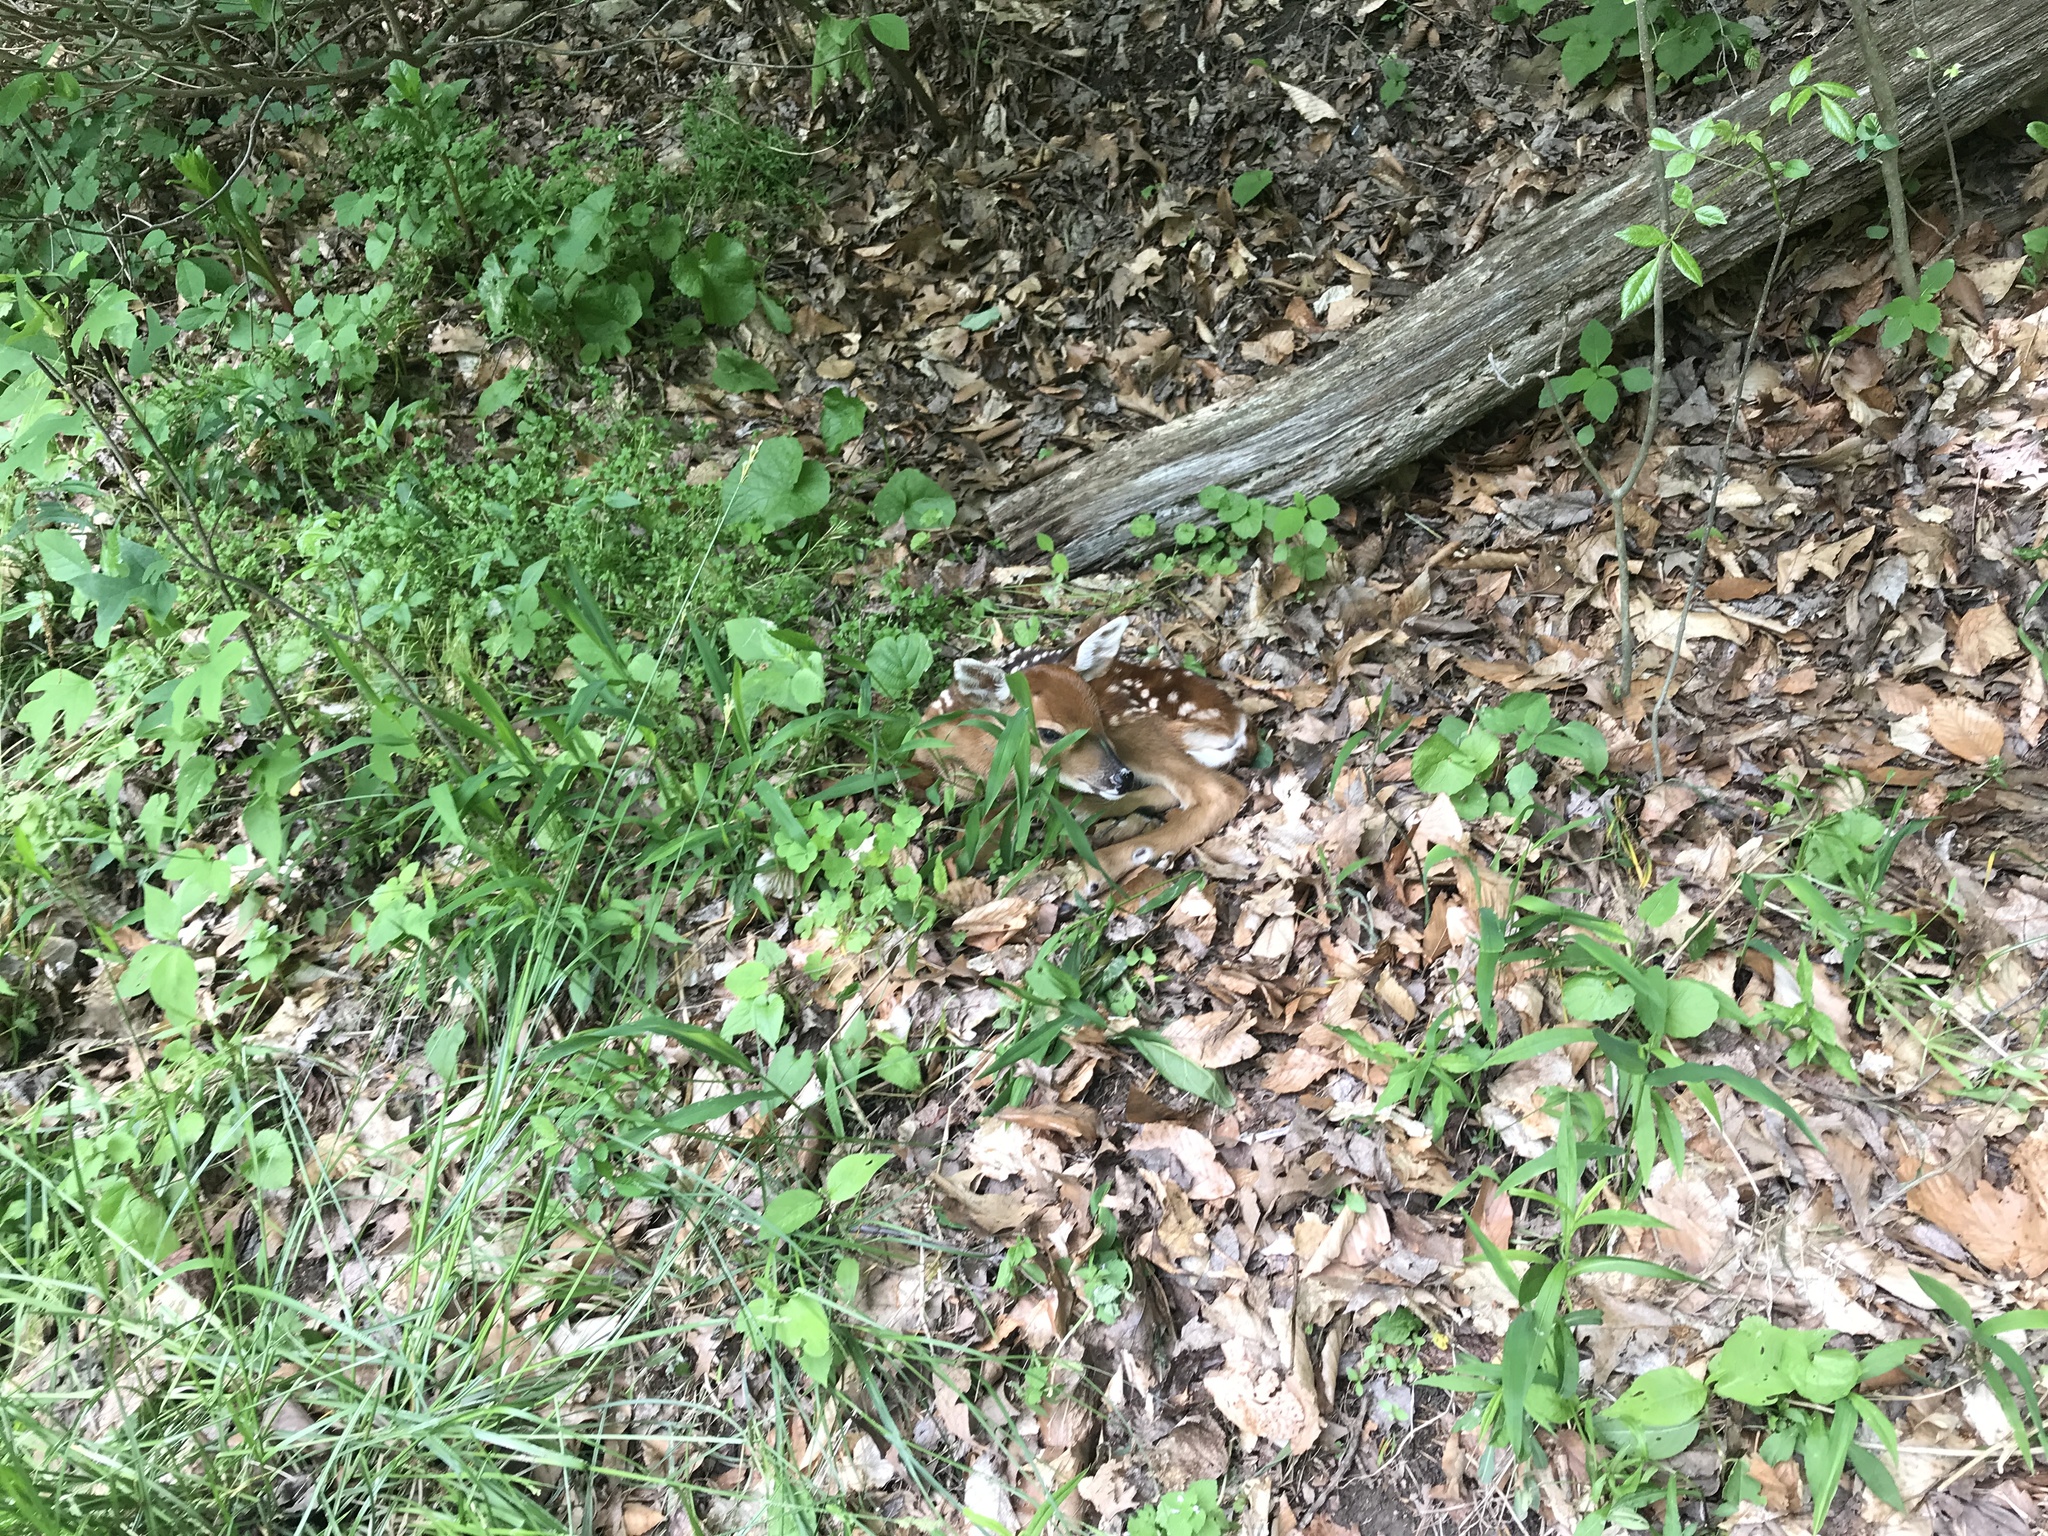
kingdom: Animalia
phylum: Chordata
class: Mammalia
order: Artiodactyla
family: Cervidae
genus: Odocoileus
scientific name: Odocoileus virginianus
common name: White-tailed deer
